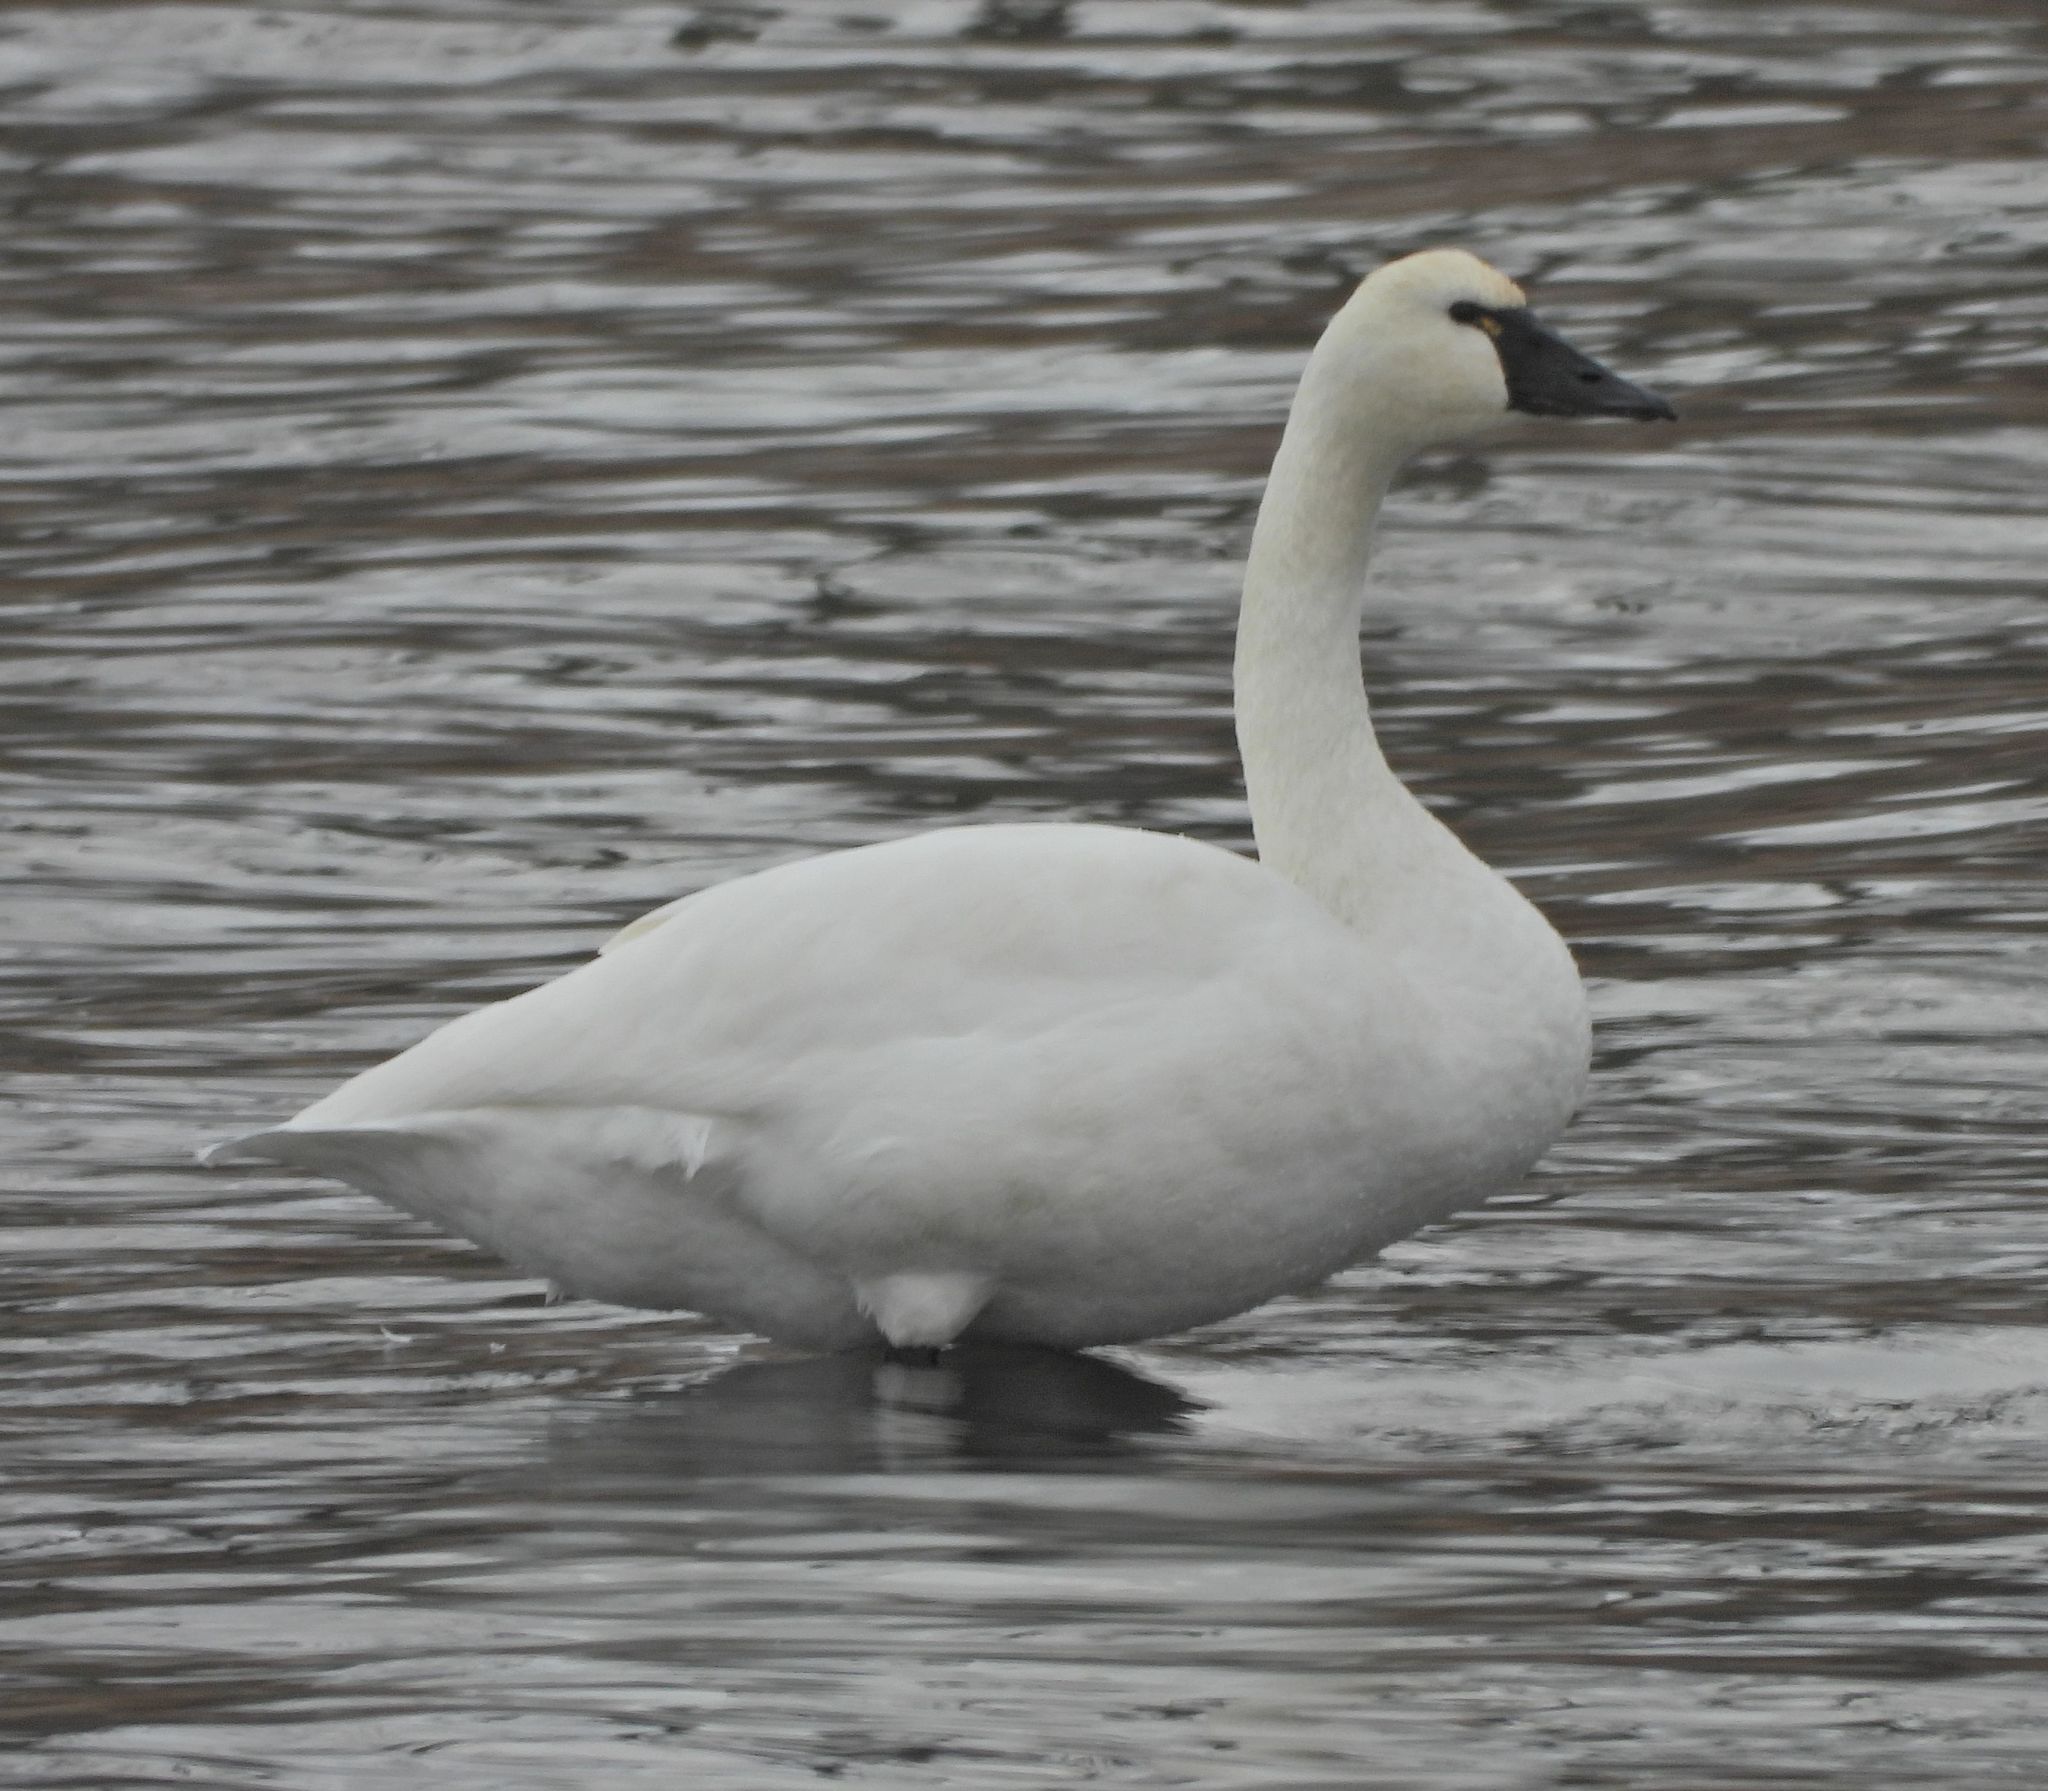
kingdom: Animalia
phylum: Chordata
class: Aves
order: Anseriformes
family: Anatidae
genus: Cygnus
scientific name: Cygnus columbianus
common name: Tundra swan
